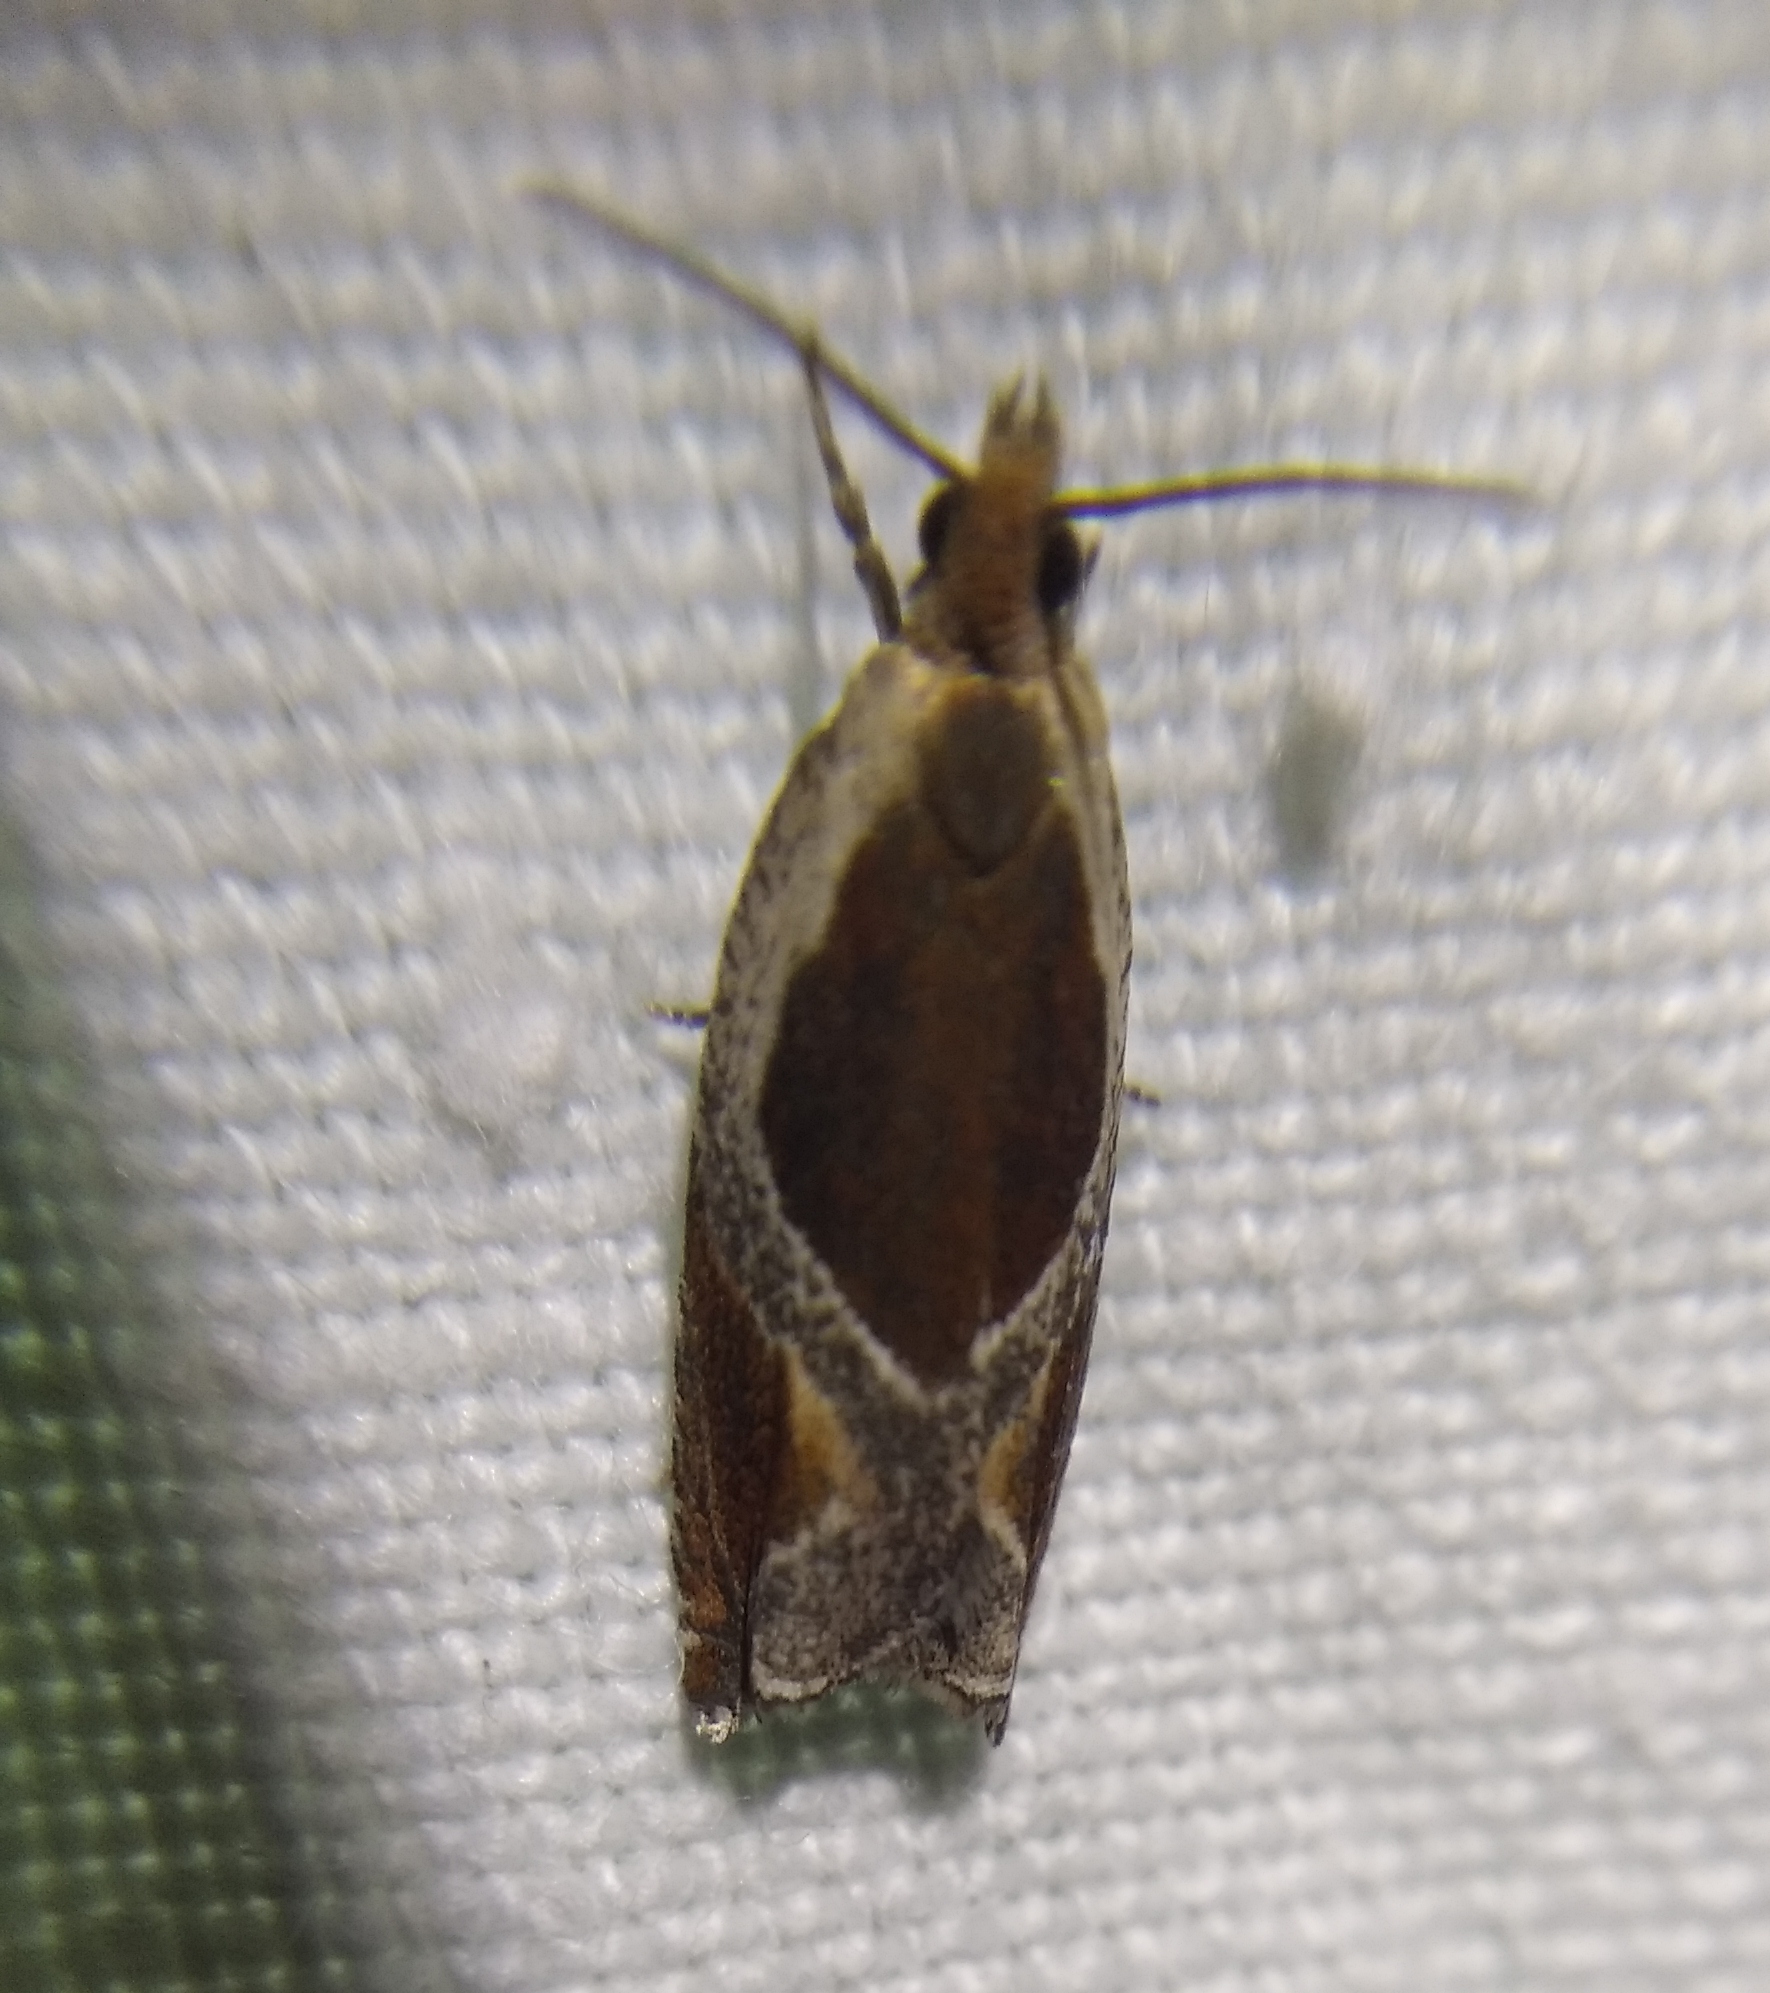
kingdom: Animalia
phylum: Arthropoda
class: Insecta
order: Lepidoptera
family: Tortricidae
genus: Ancylis
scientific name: Ancylis unculana
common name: Buckthorn roller
